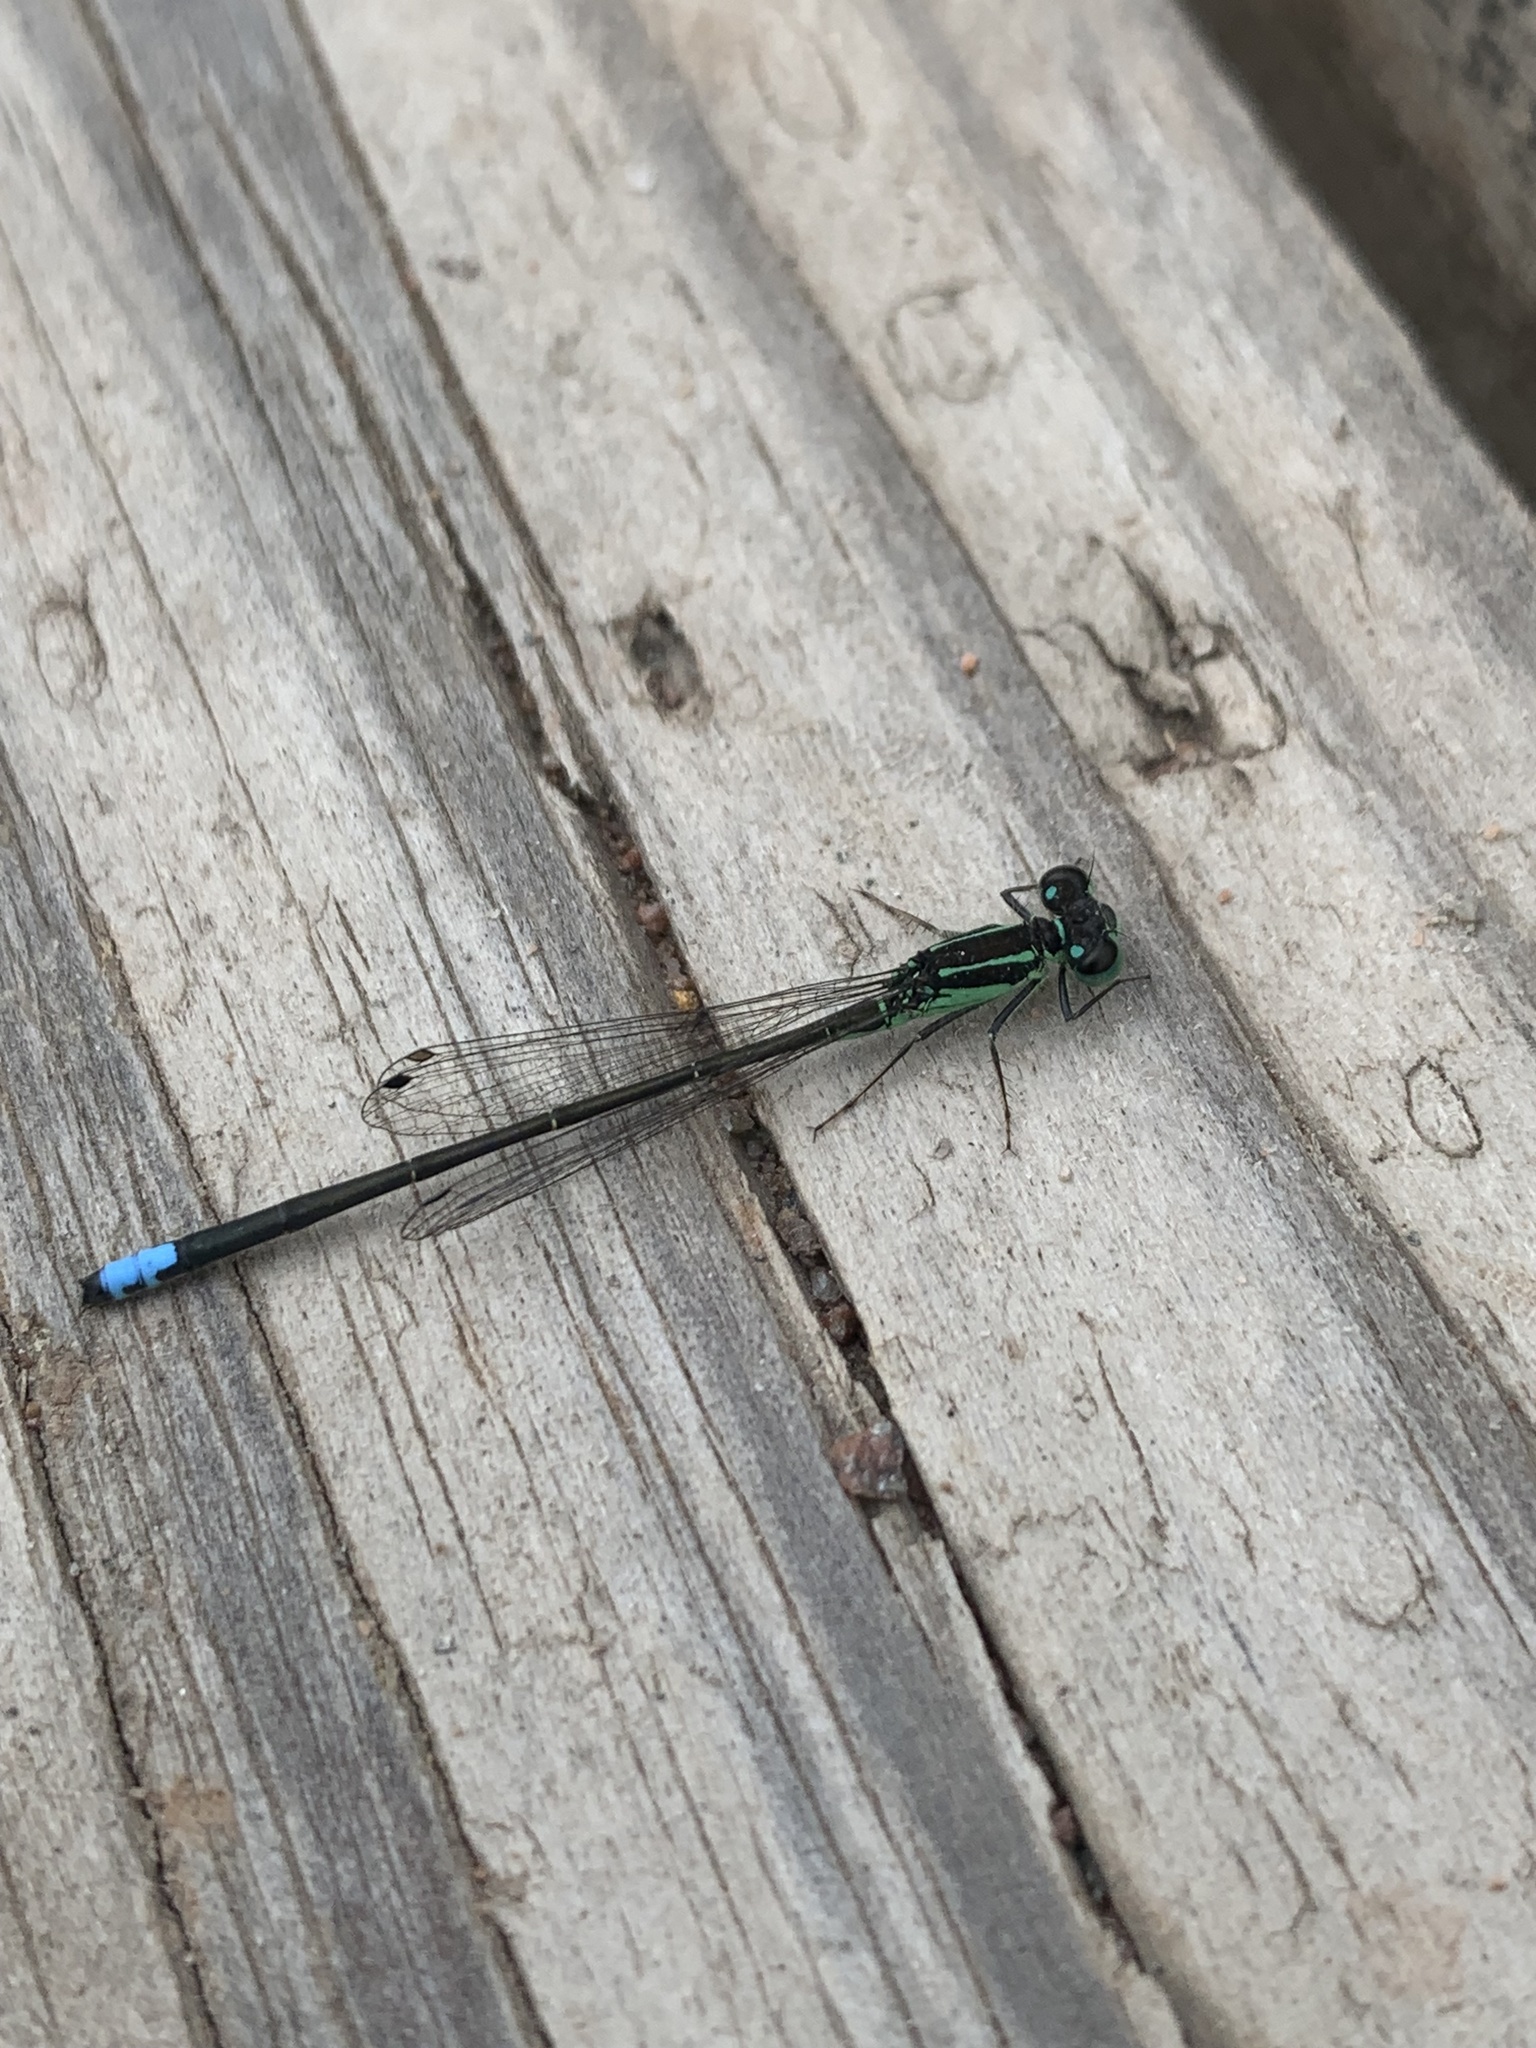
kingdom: Animalia
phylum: Arthropoda
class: Insecta
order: Odonata
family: Coenagrionidae
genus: Ischnura
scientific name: Ischnura verticalis
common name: Eastern forktail
